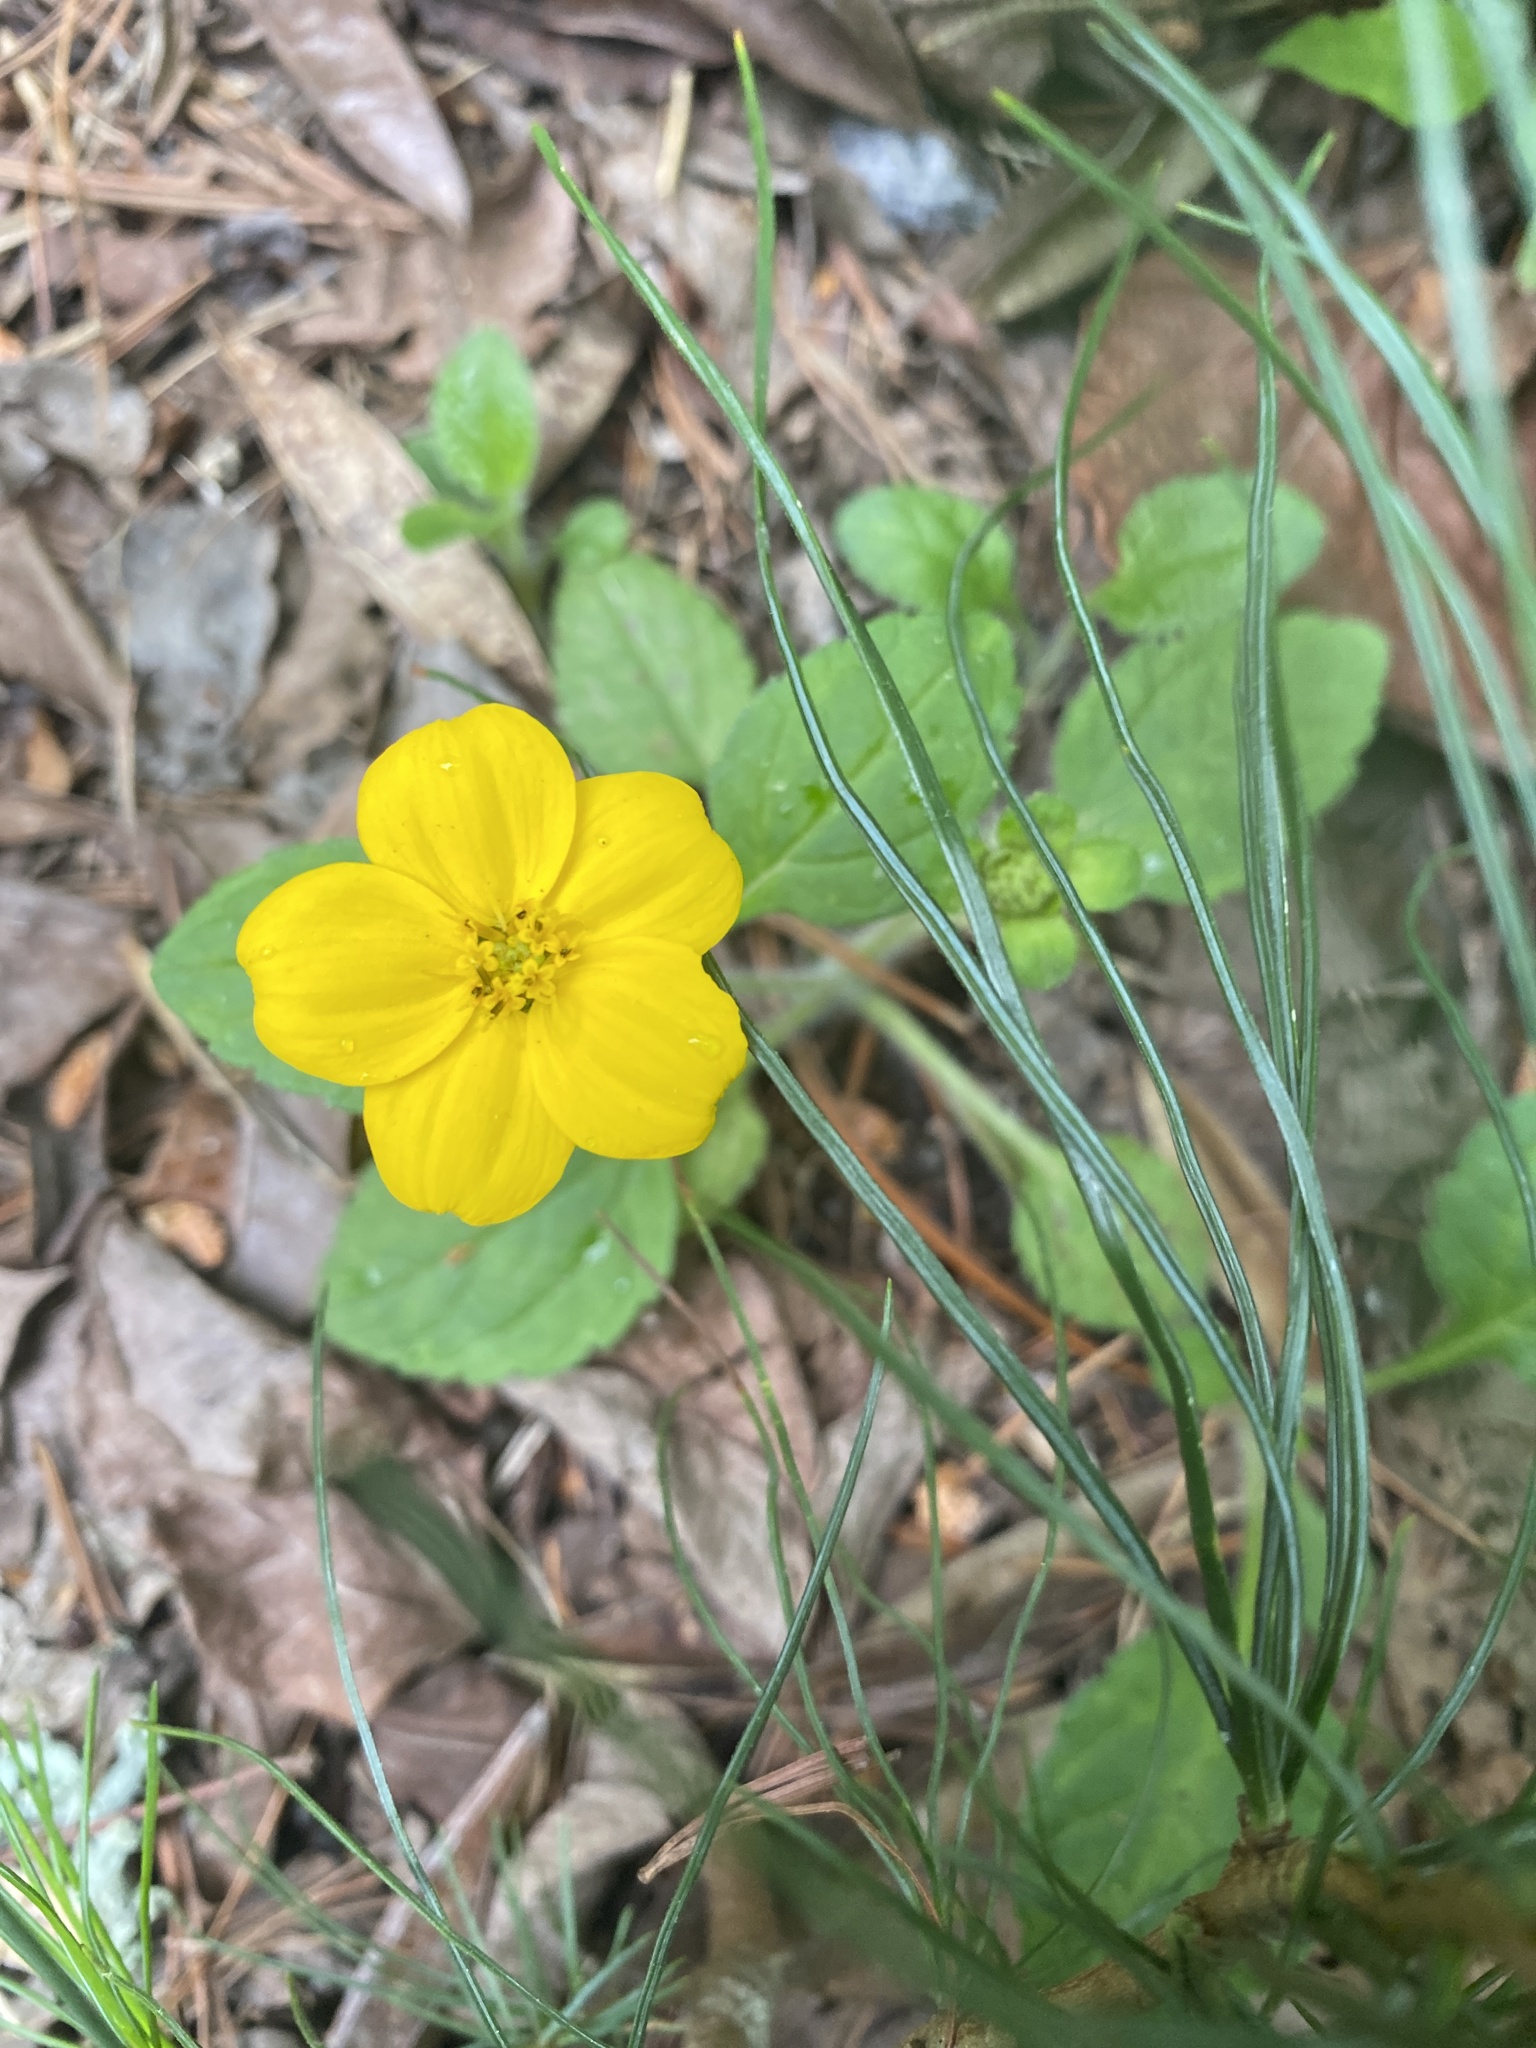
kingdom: Plantae
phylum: Tracheophyta
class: Magnoliopsida
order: Asterales
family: Asteraceae
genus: Chrysogonum
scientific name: Chrysogonum virginianum
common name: Golden-knee
